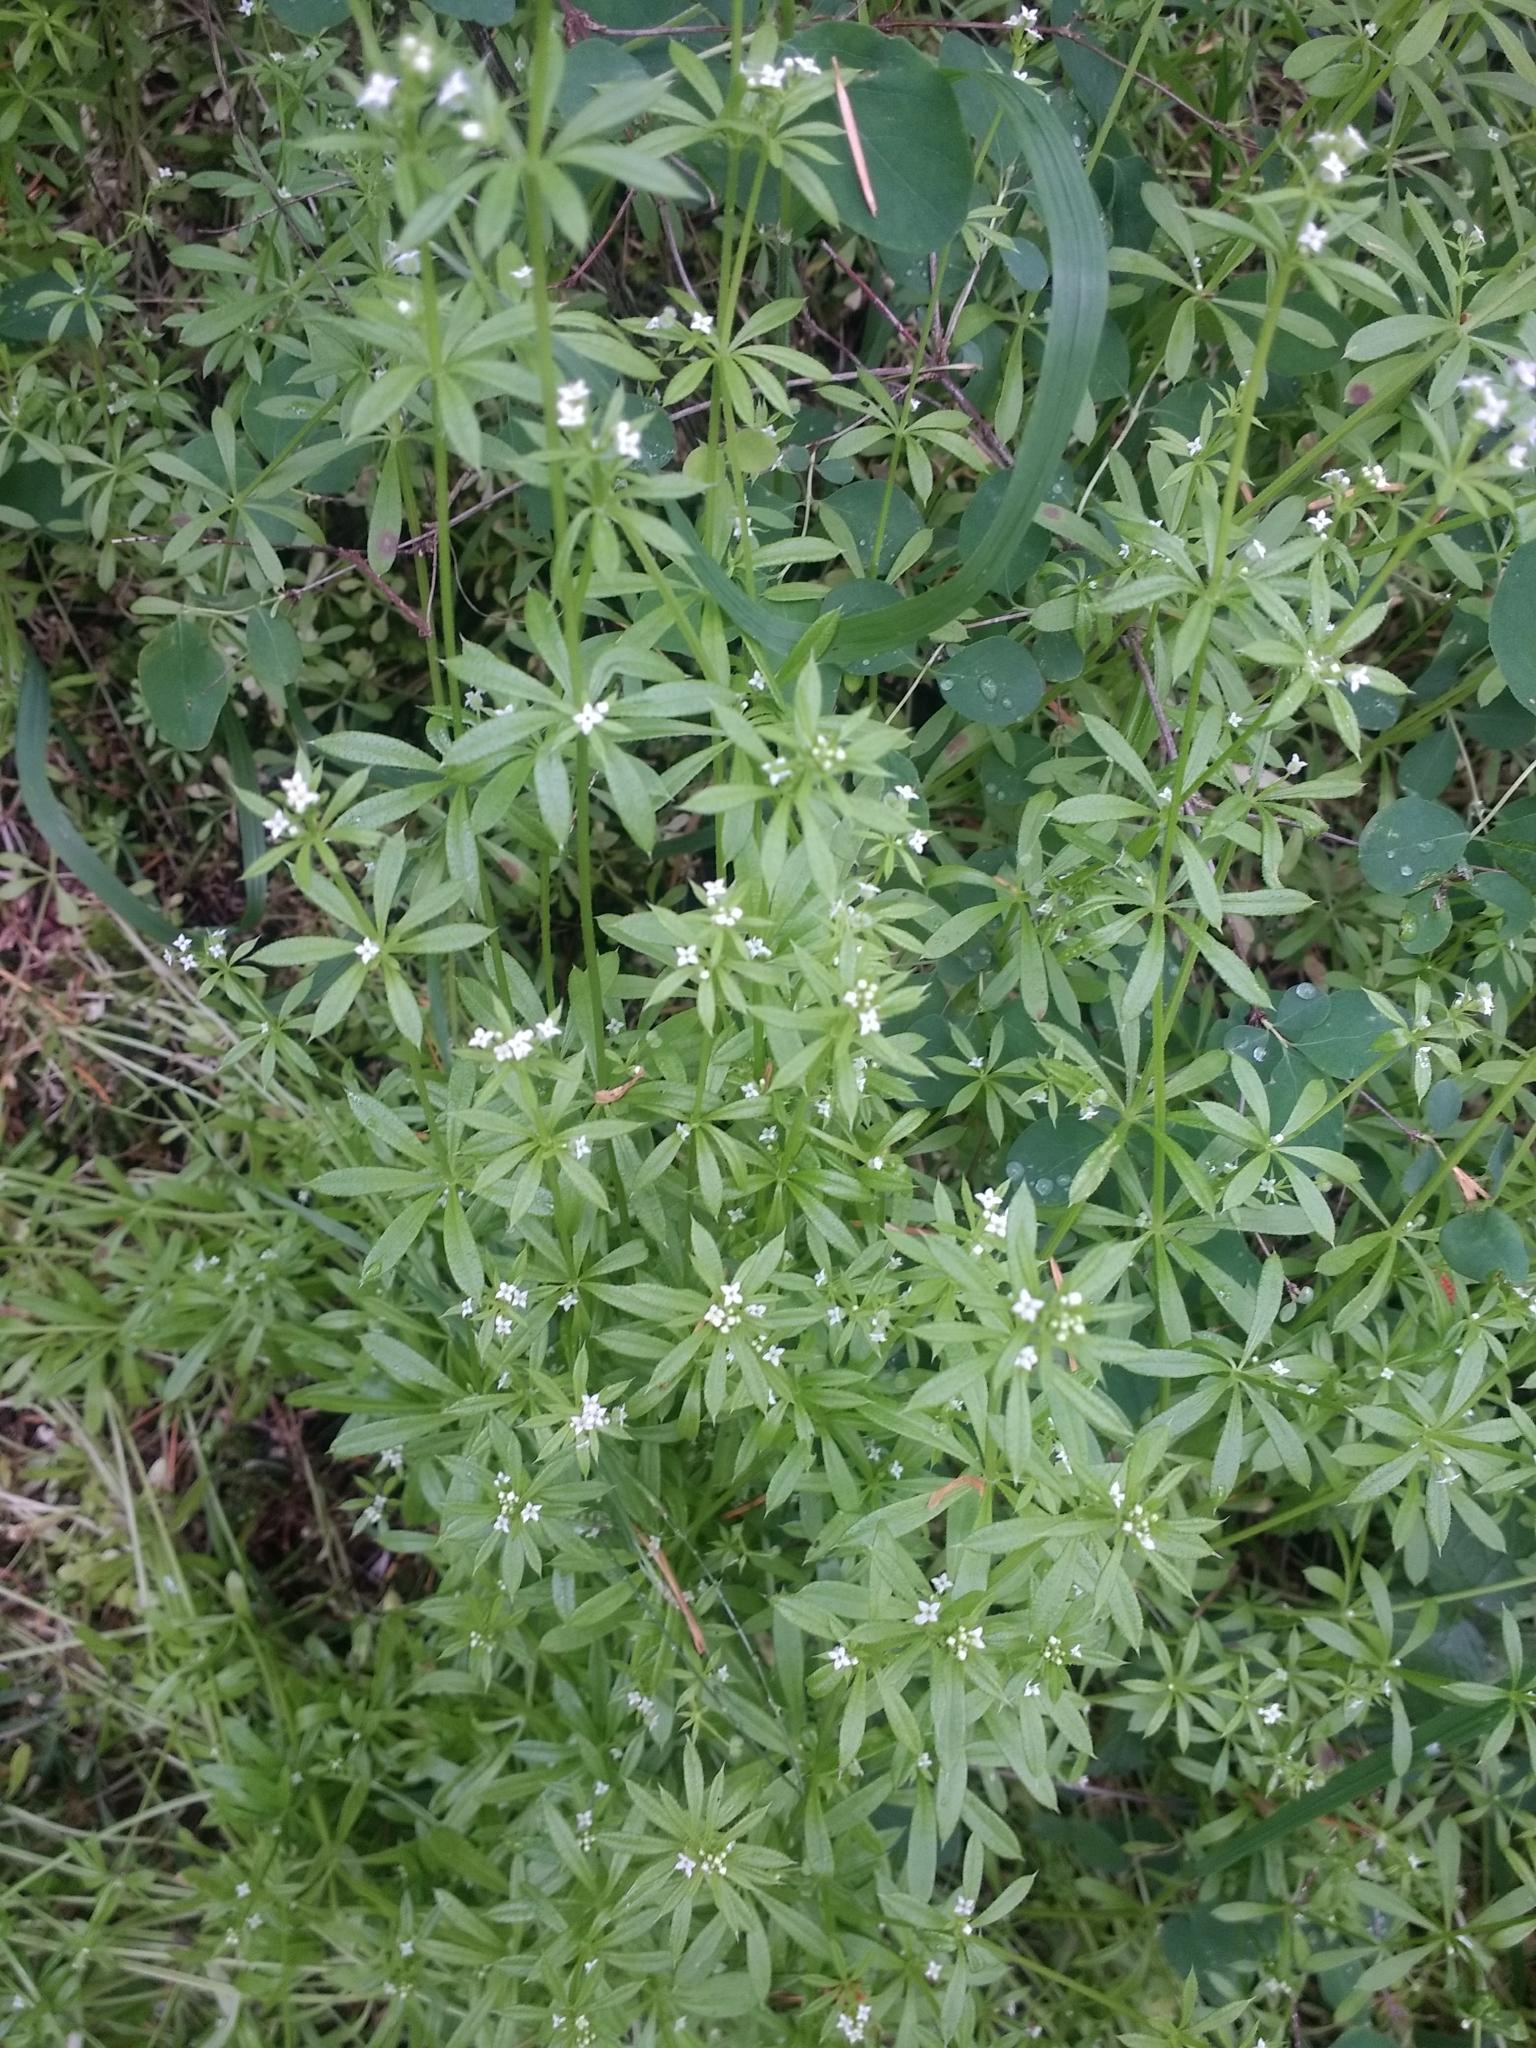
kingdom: Plantae
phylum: Tracheophyta
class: Magnoliopsida
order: Gentianales
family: Rubiaceae
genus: Galium
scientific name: Galium aparine
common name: Cleavers
